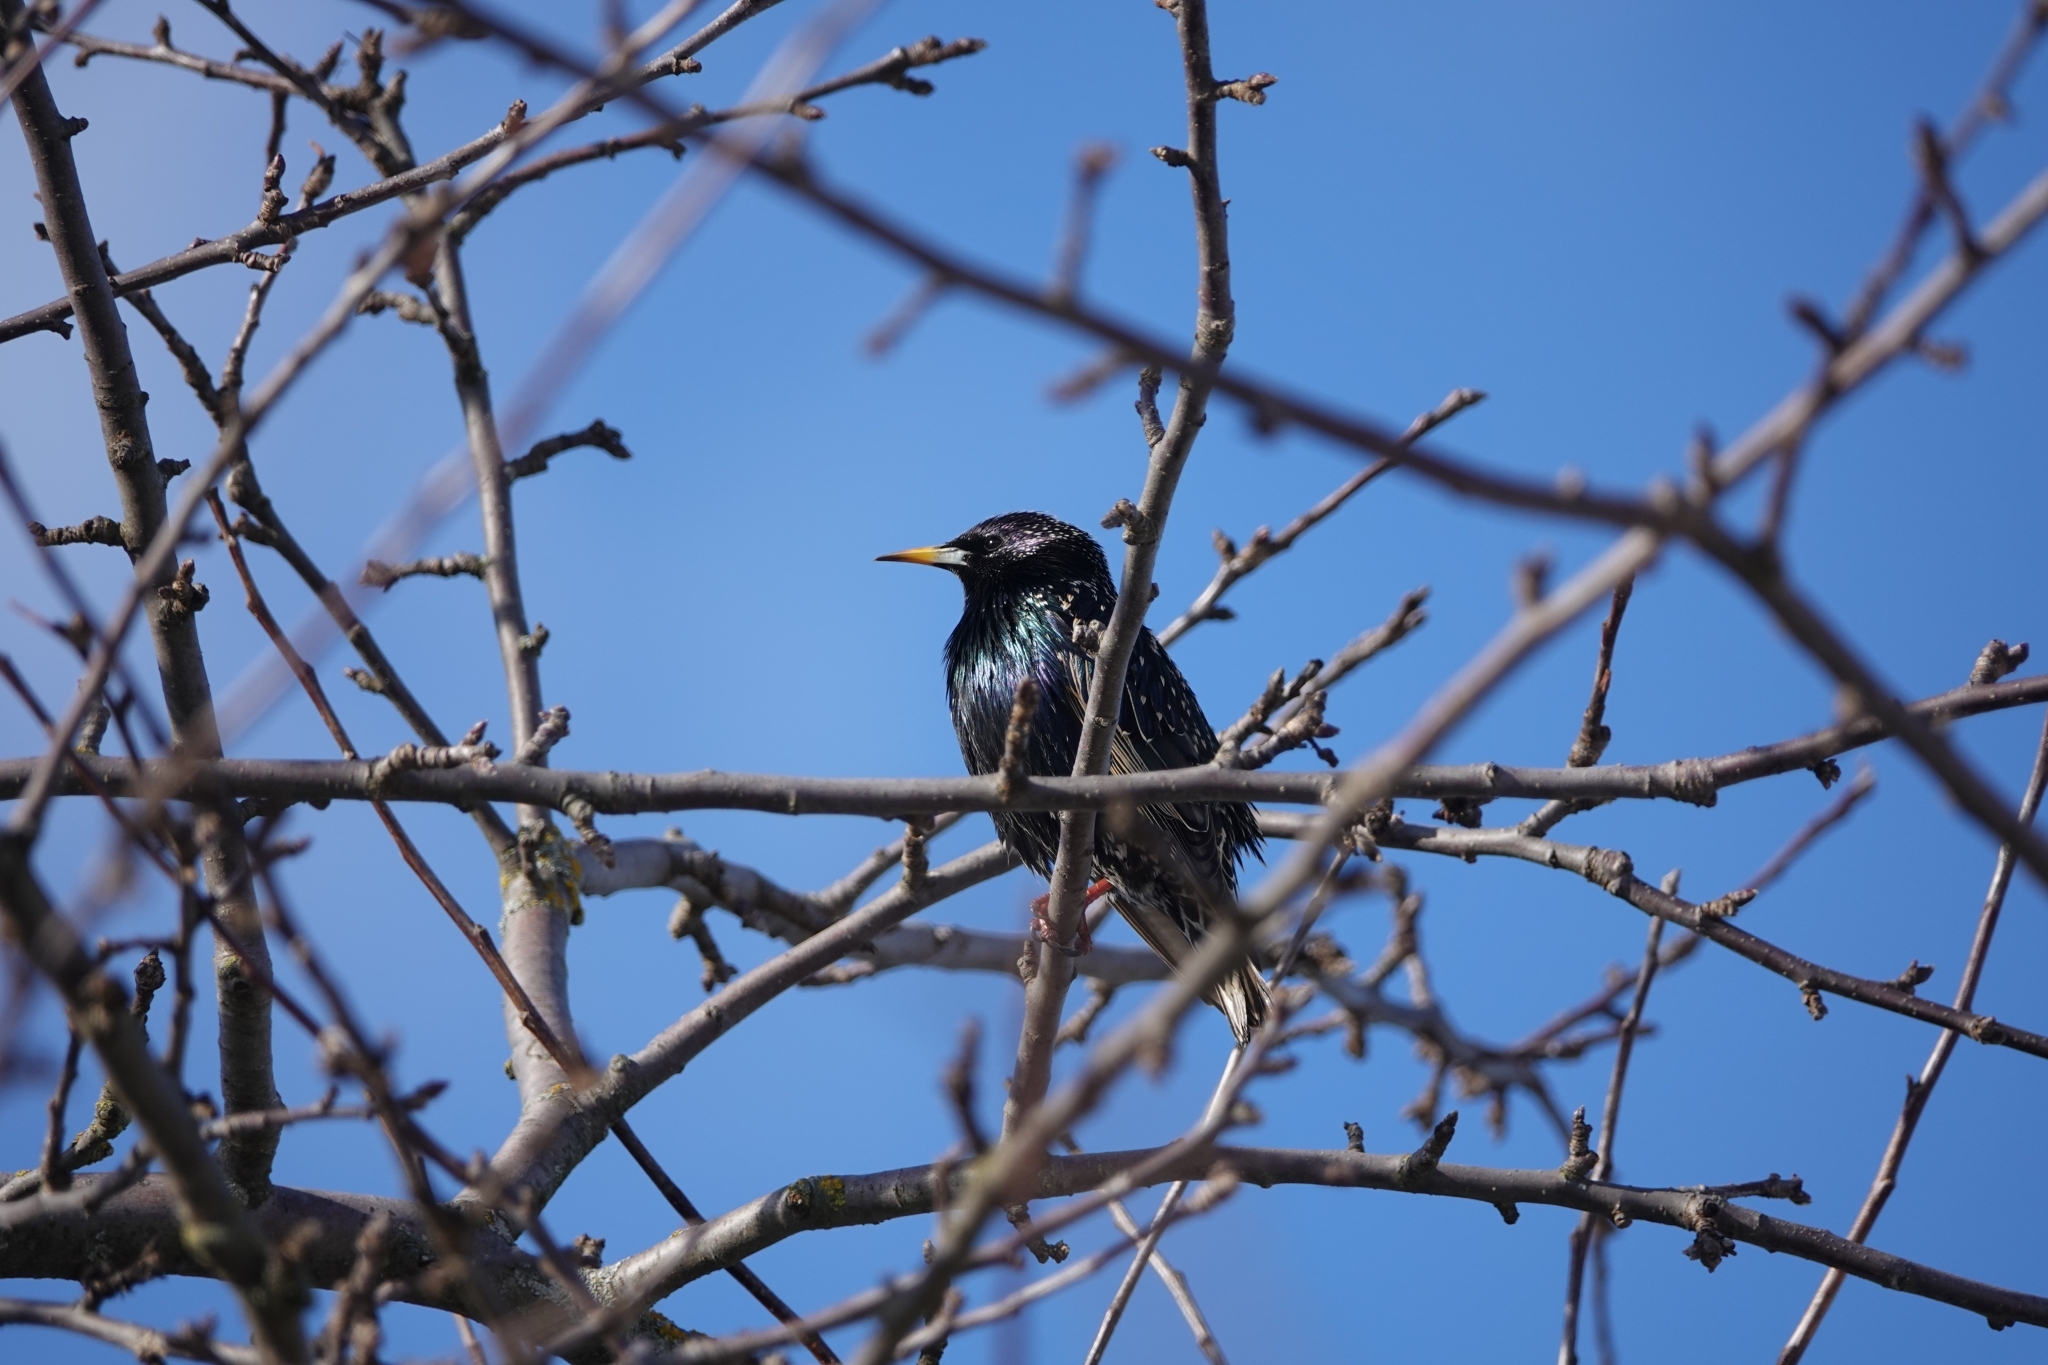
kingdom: Animalia
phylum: Chordata
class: Aves
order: Passeriformes
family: Sturnidae
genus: Sturnus
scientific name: Sturnus vulgaris
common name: Common starling
